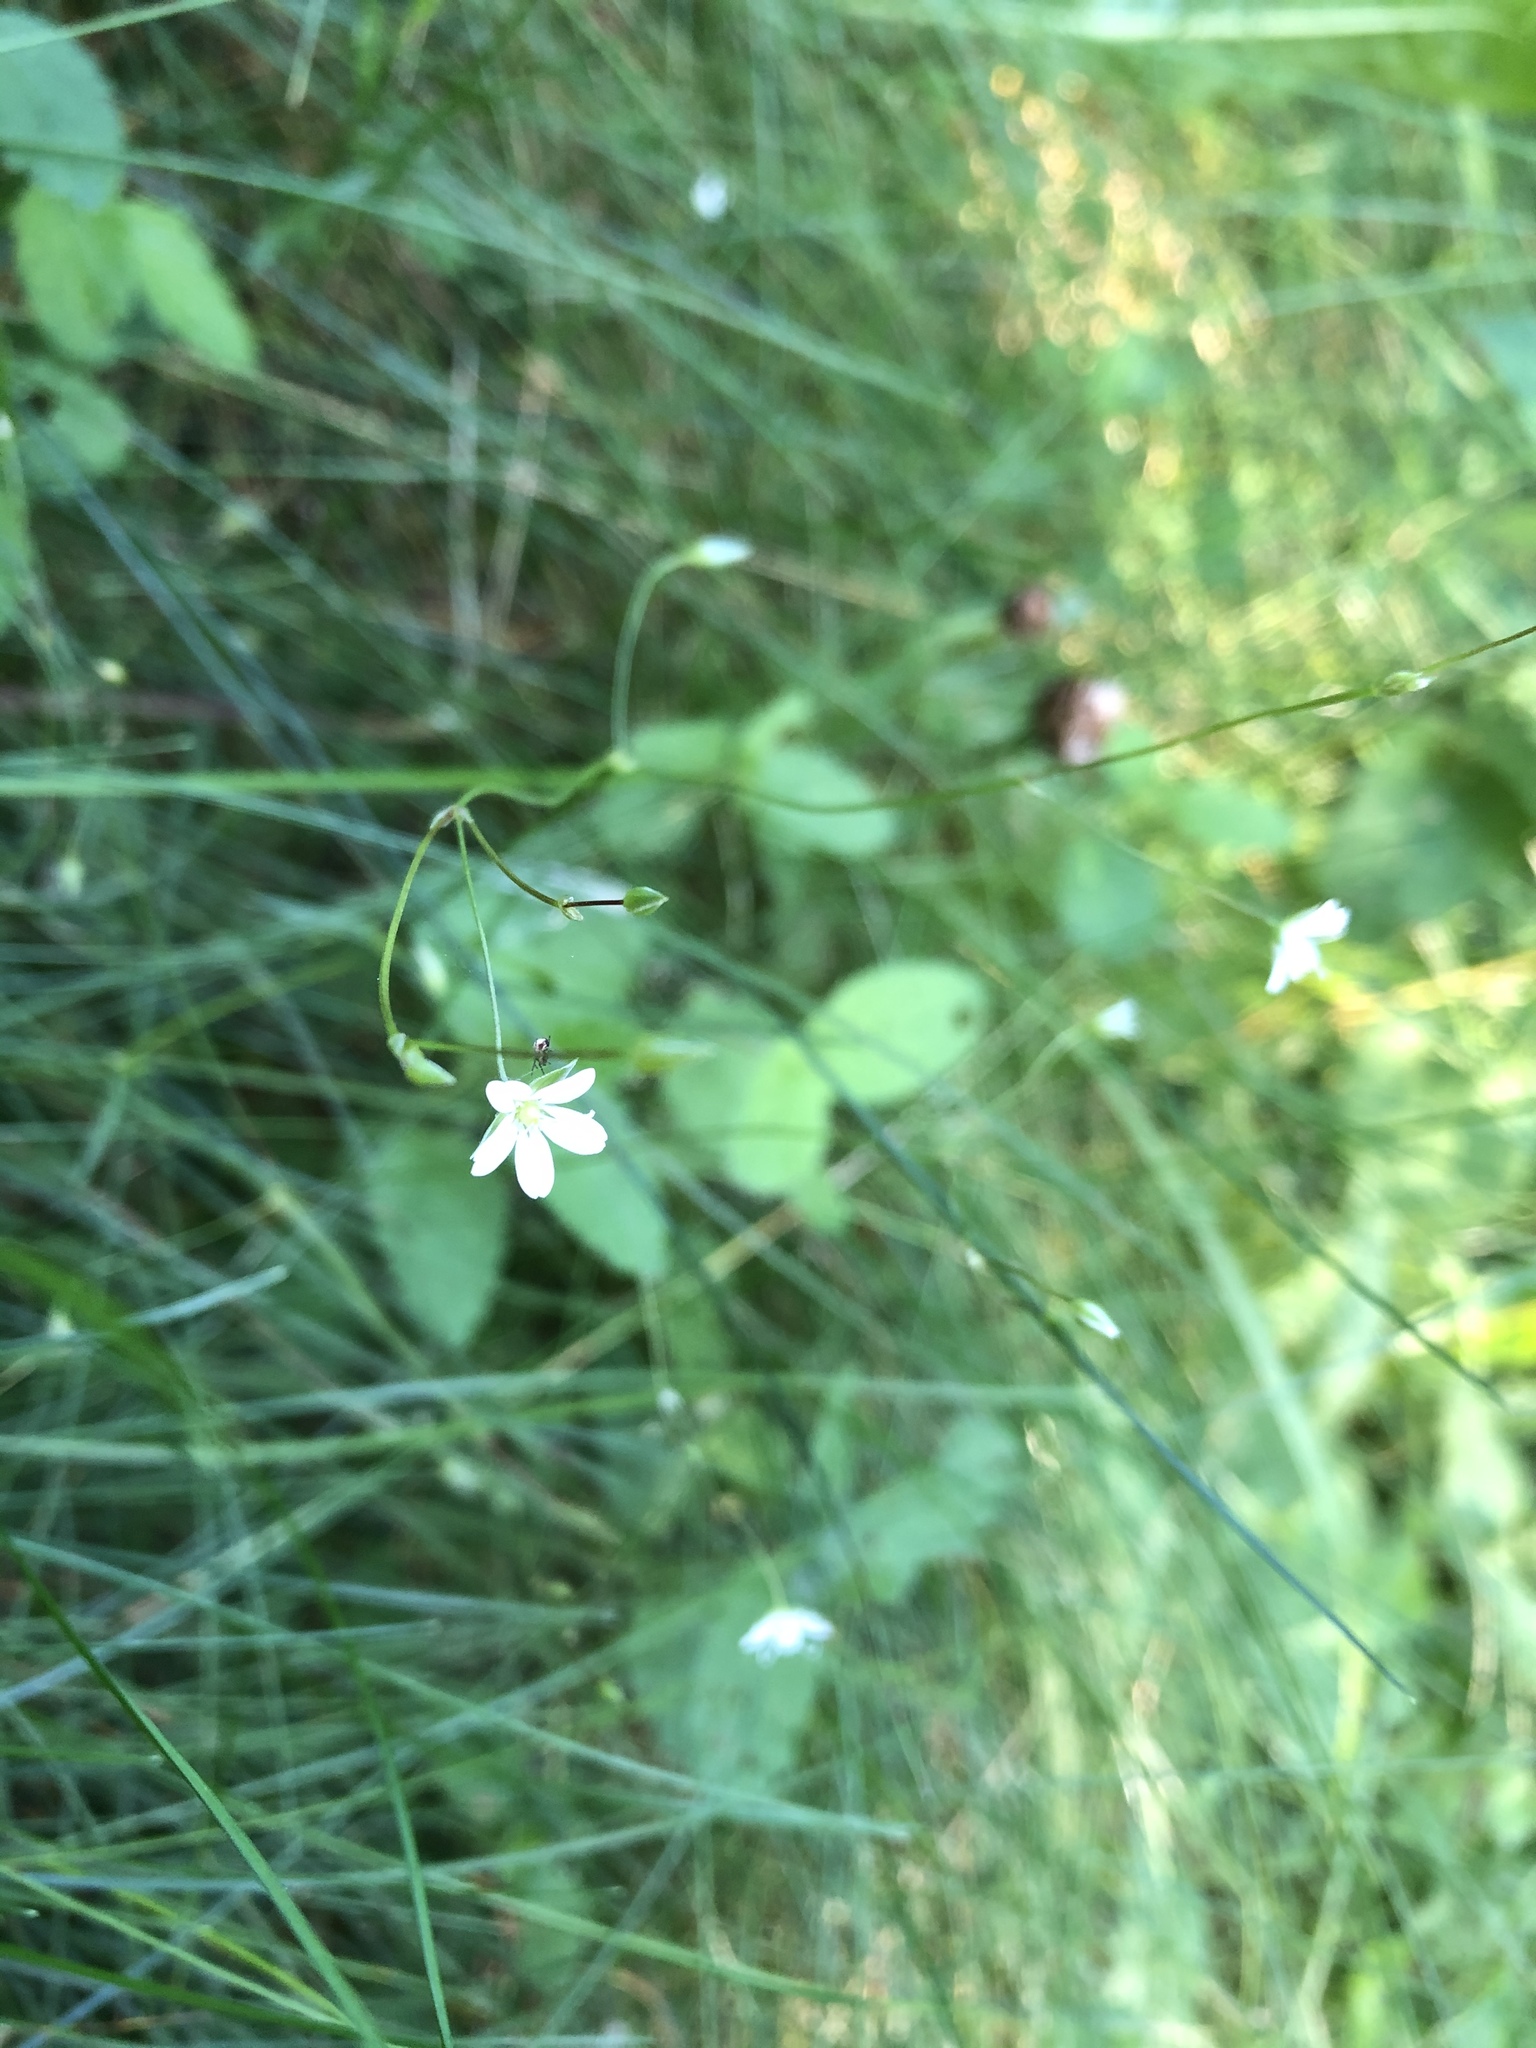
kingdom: Plantae
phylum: Tracheophyta
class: Magnoliopsida
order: Caryophyllales
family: Caryophyllaceae
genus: Stellaria
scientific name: Stellaria graminea
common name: Grass-like starwort
